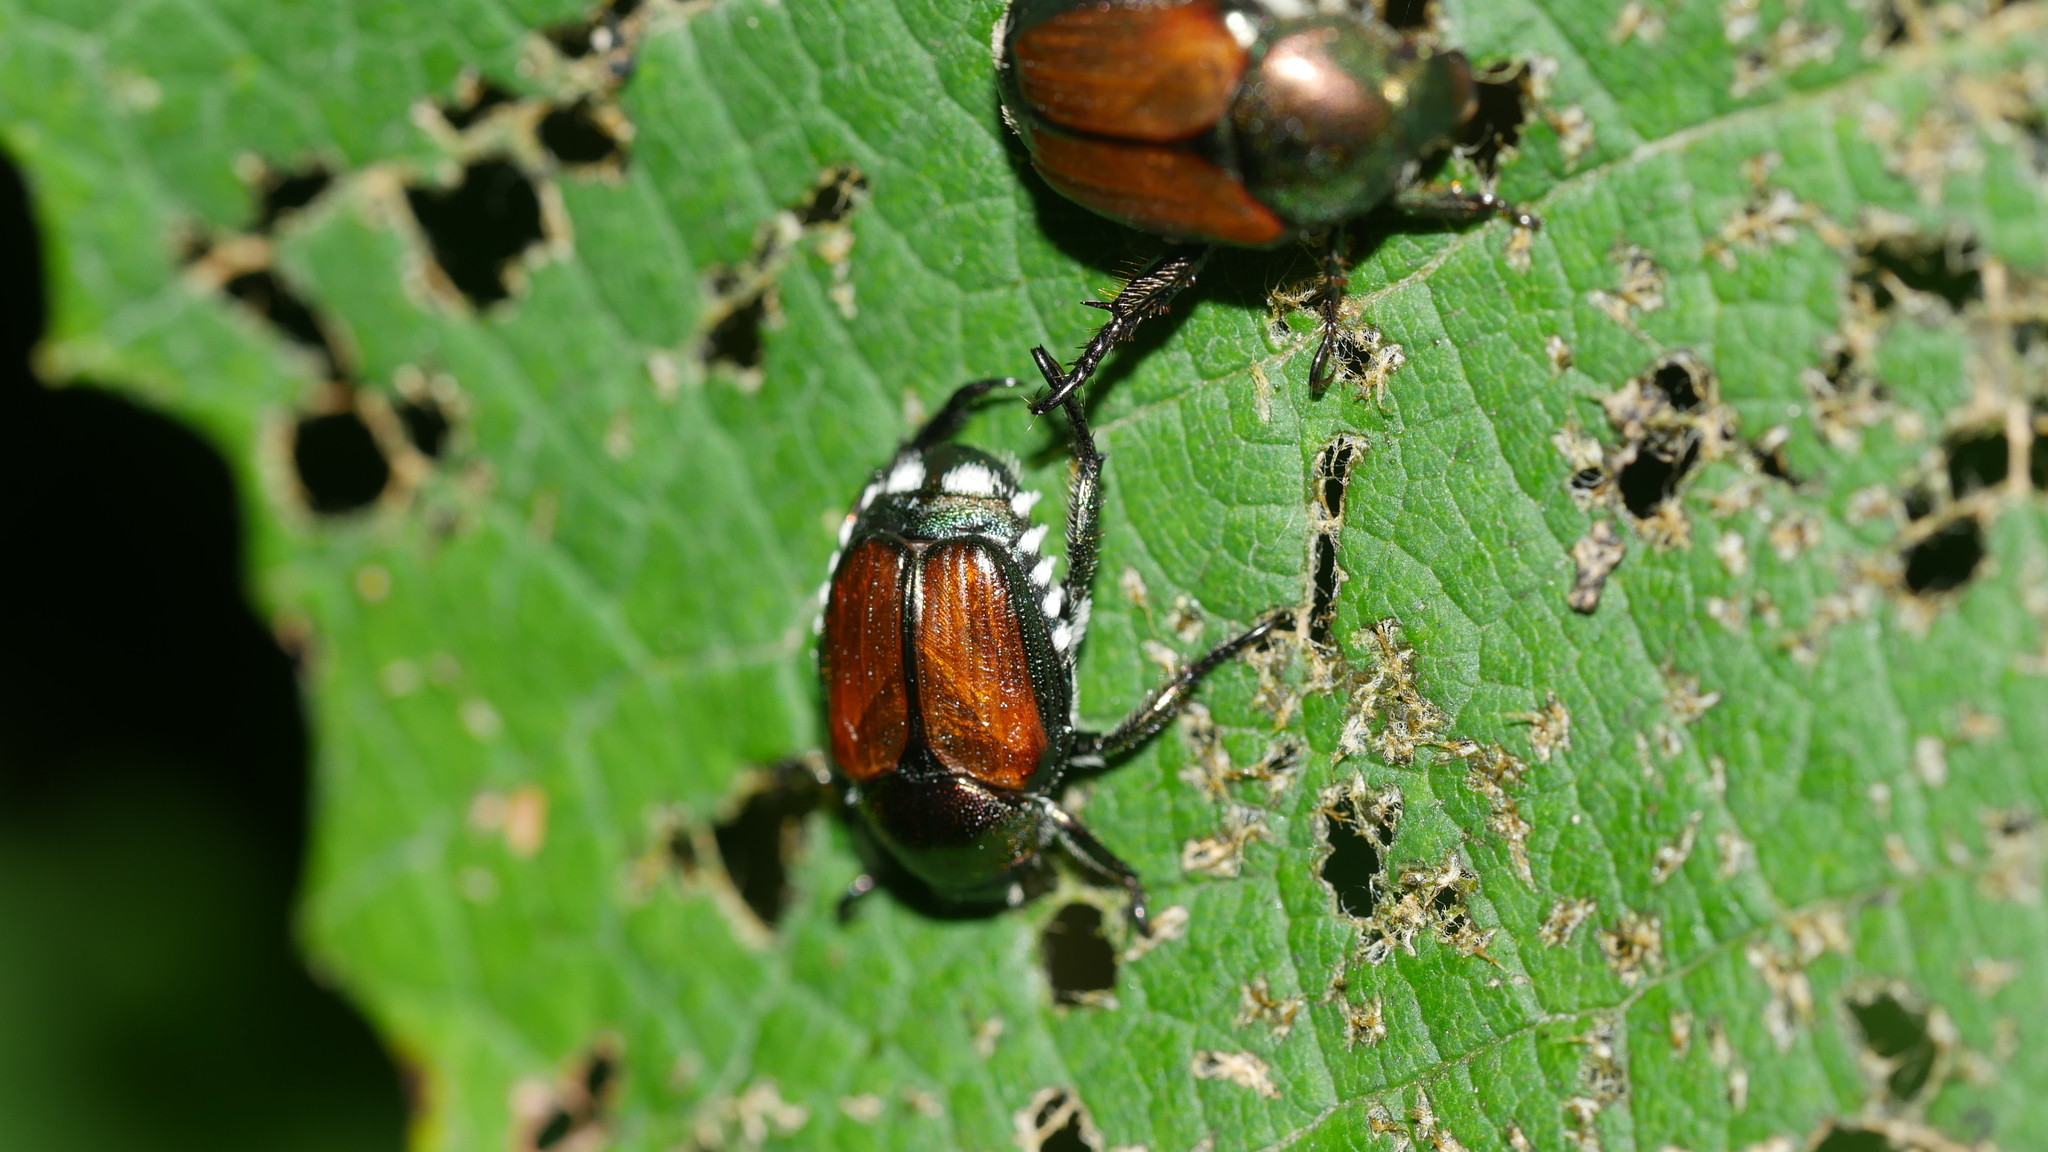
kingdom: Animalia
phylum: Arthropoda
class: Insecta
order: Coleoptera
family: Scarabaeidae
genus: Popillia
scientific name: Popillia japonica
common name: Japanese beetle
